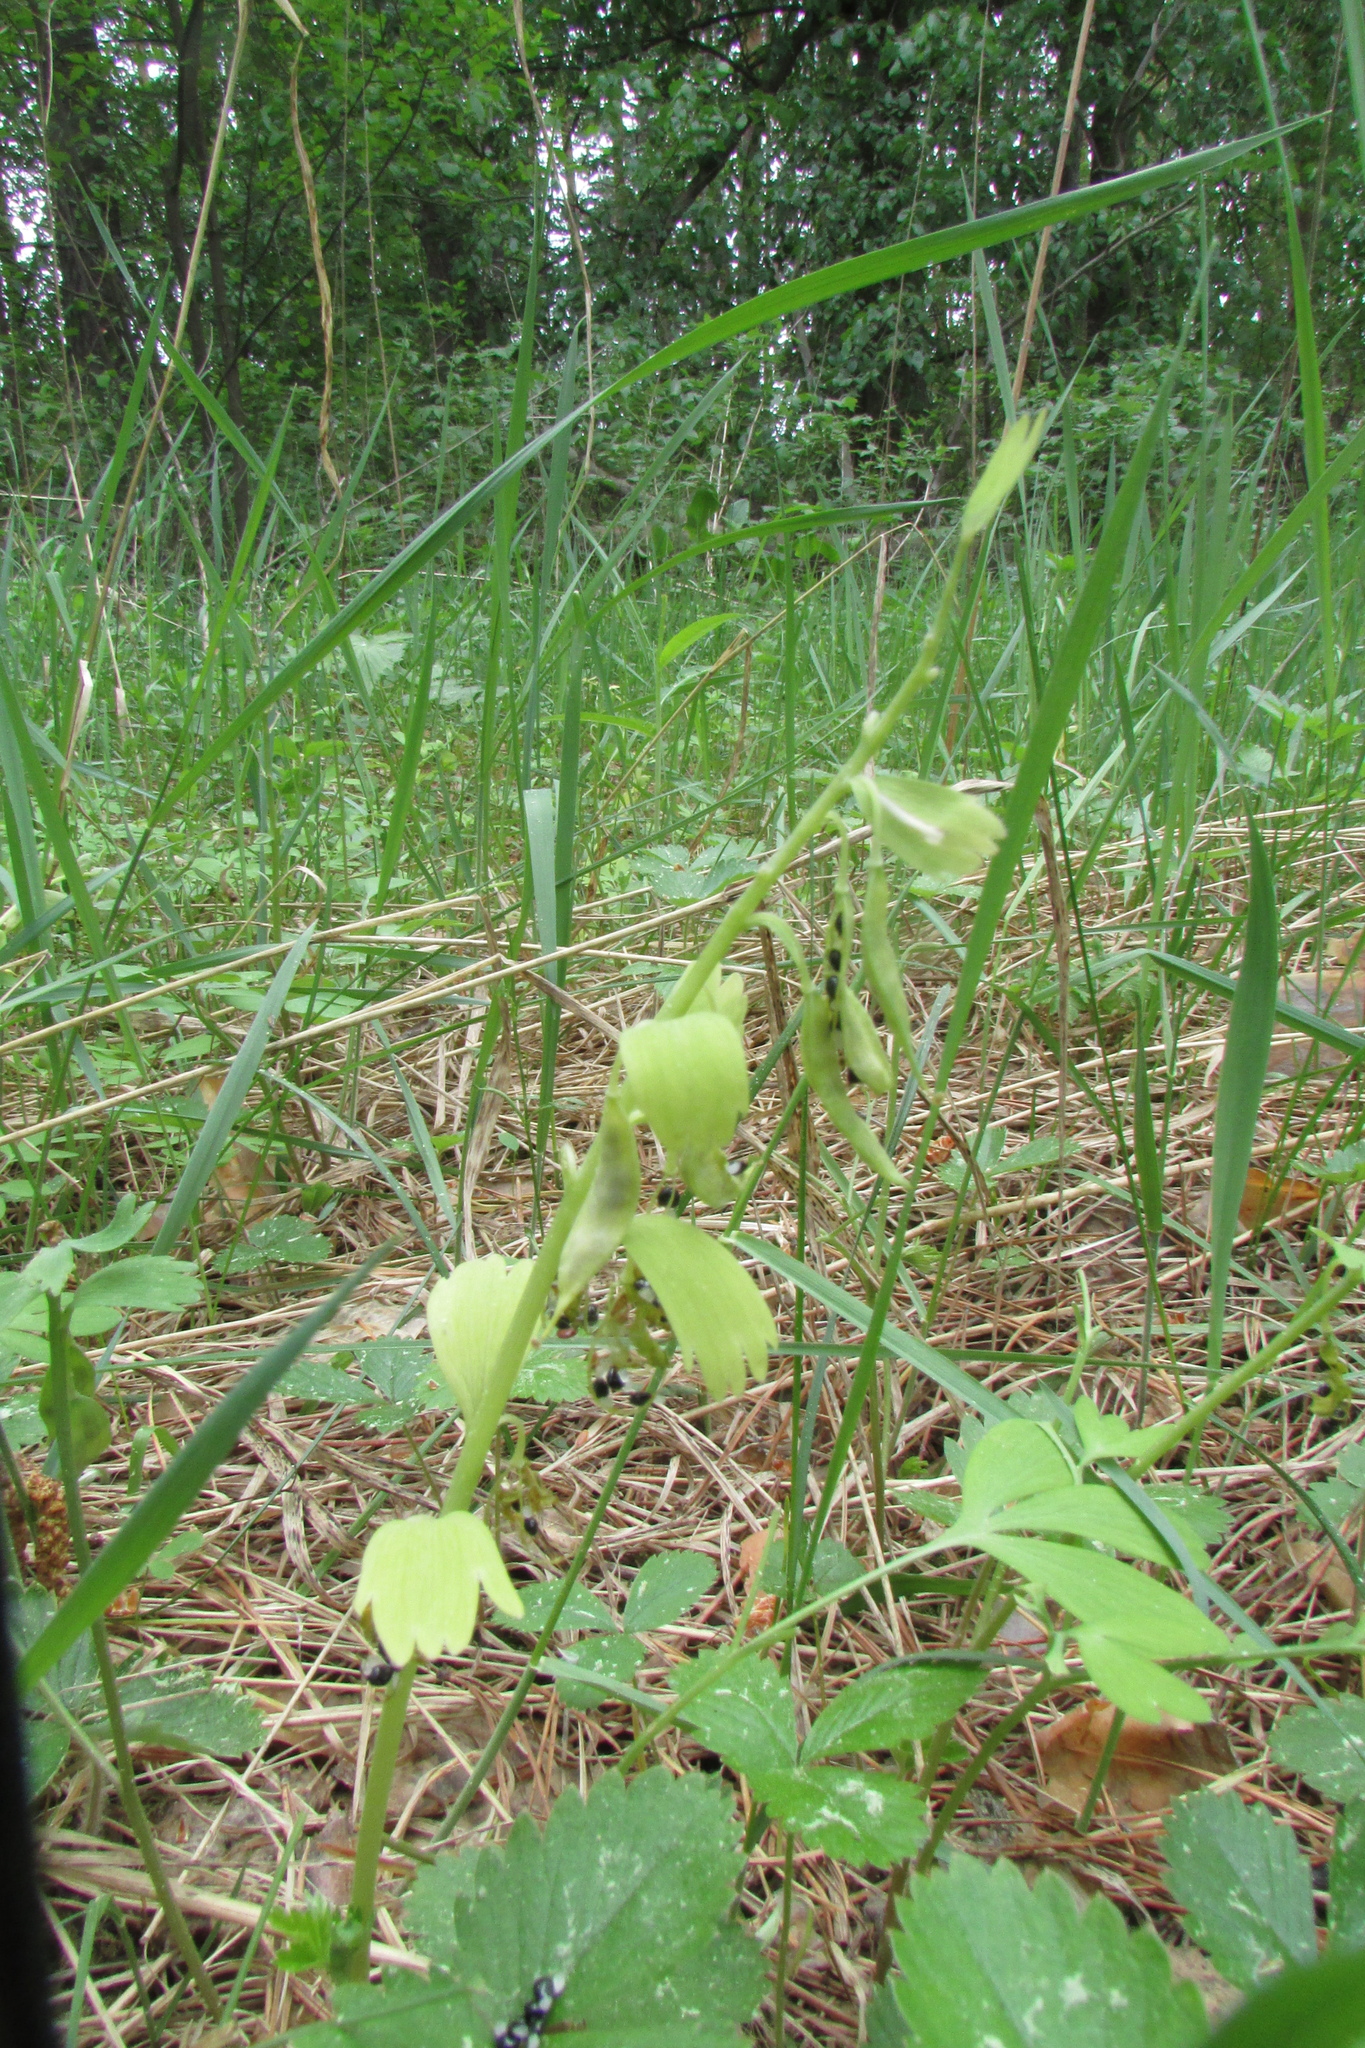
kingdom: Plantae
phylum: Tracheophyta
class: Magnoliopsida
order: Ranunculales
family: Papaveraceae
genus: Corydalis
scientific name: Corydalis solida
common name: Bird-in-a-bush
